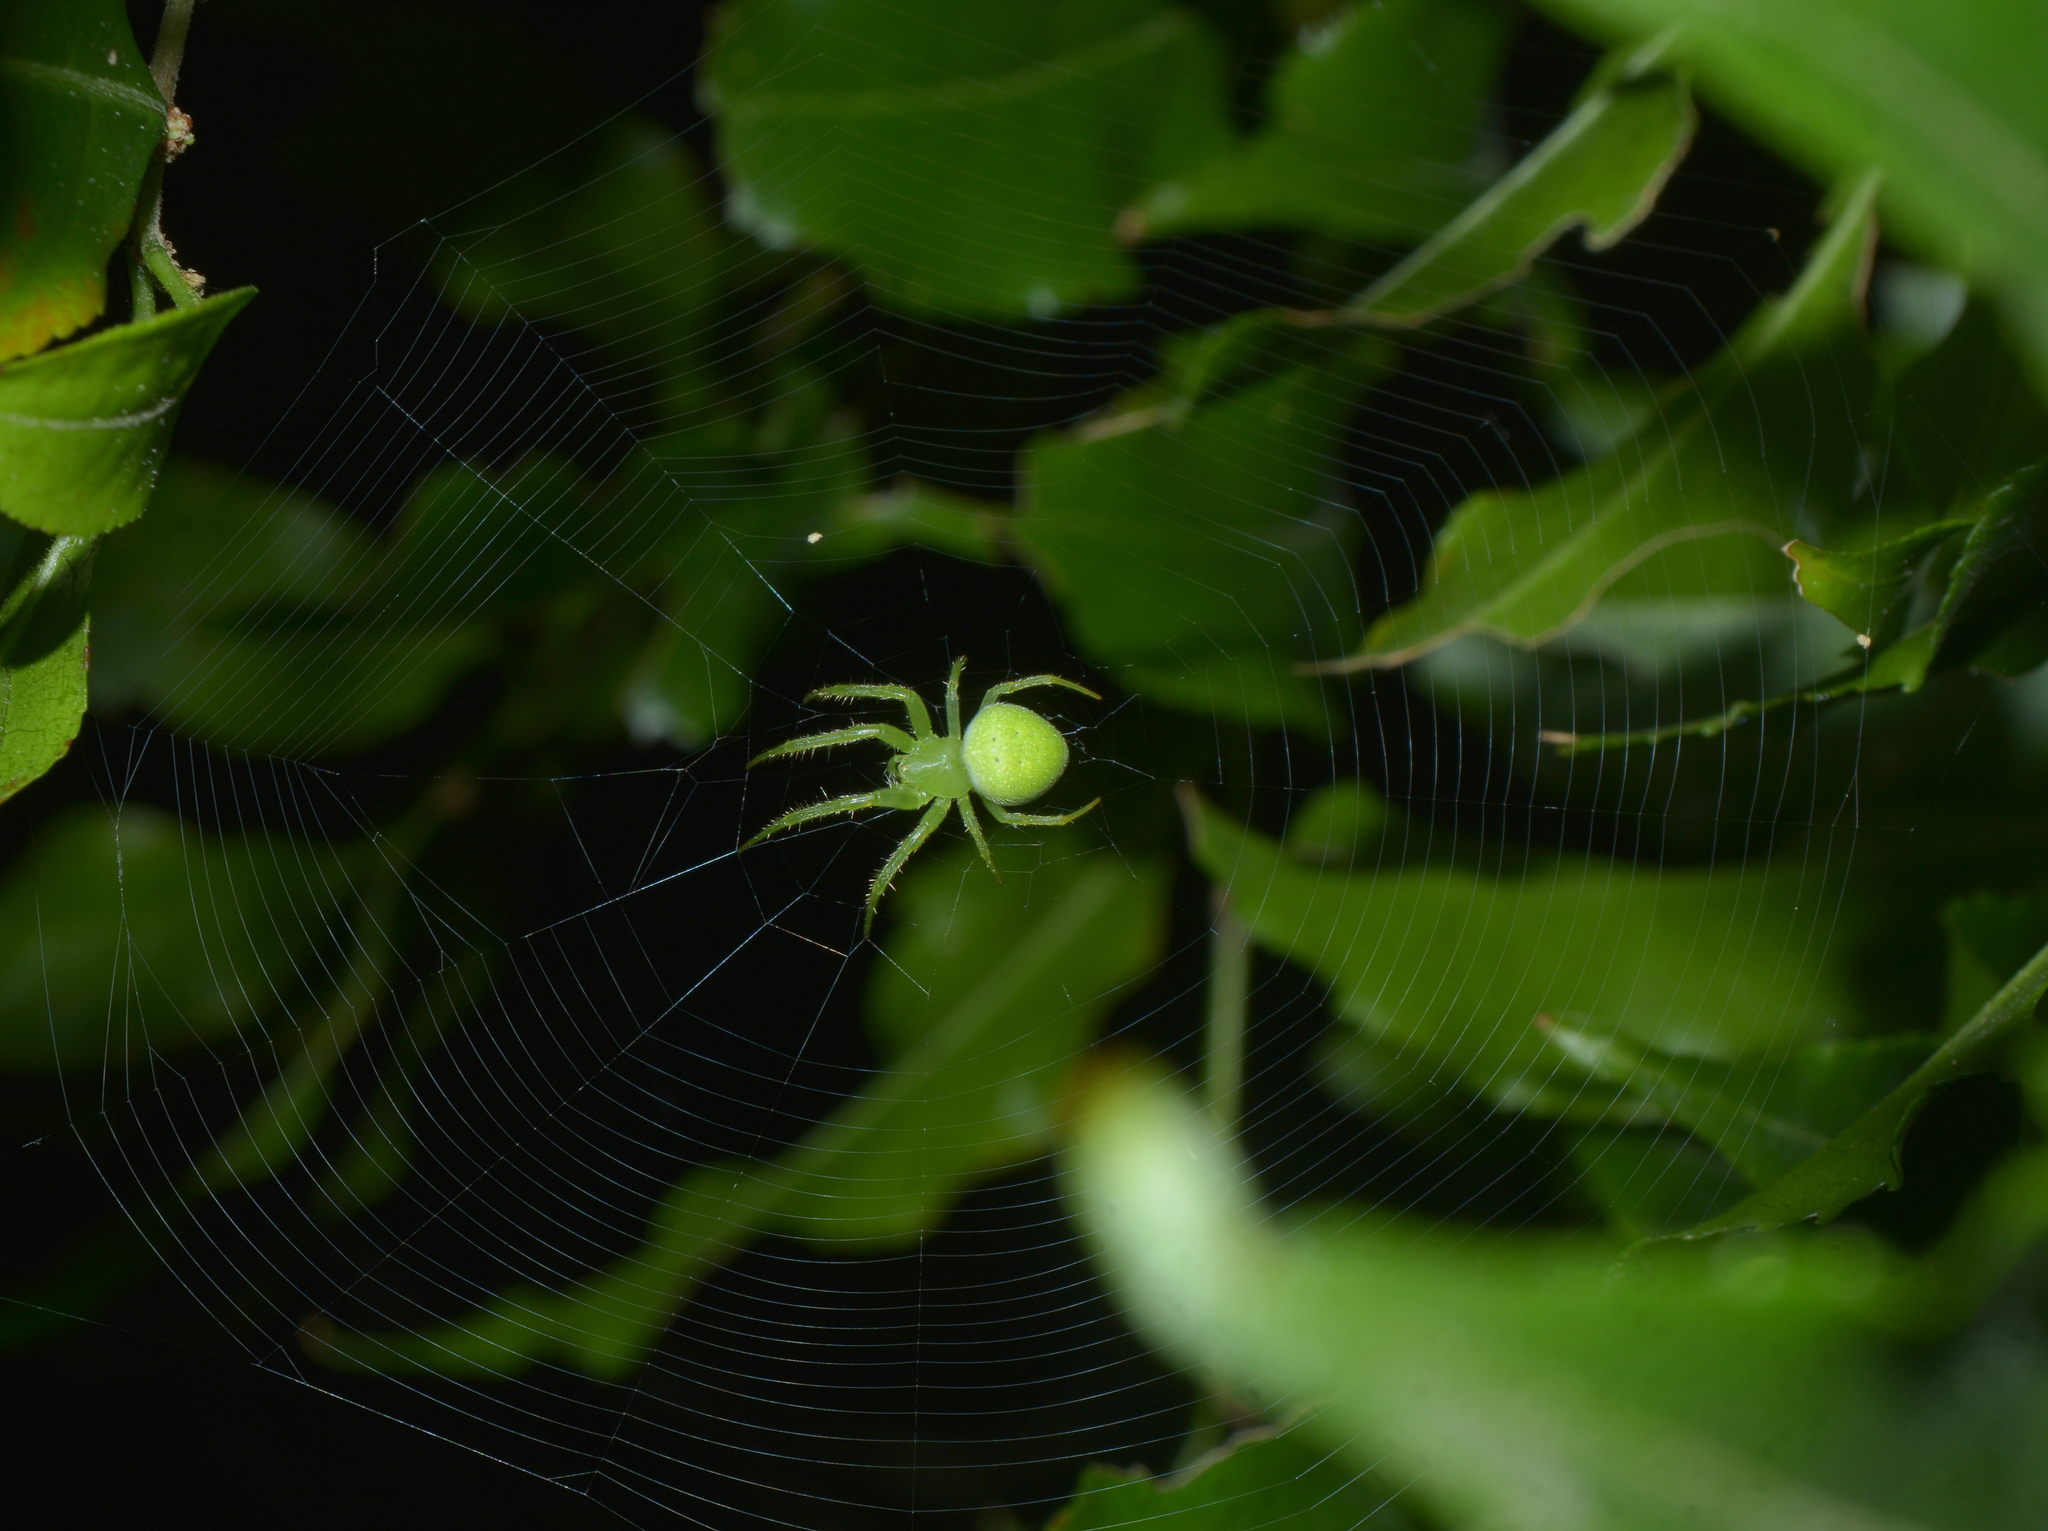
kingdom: Animalia
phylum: Arthropoda
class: Arachnida
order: Araneae
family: Araneidae
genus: Araneus
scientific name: Araneus uniformis
